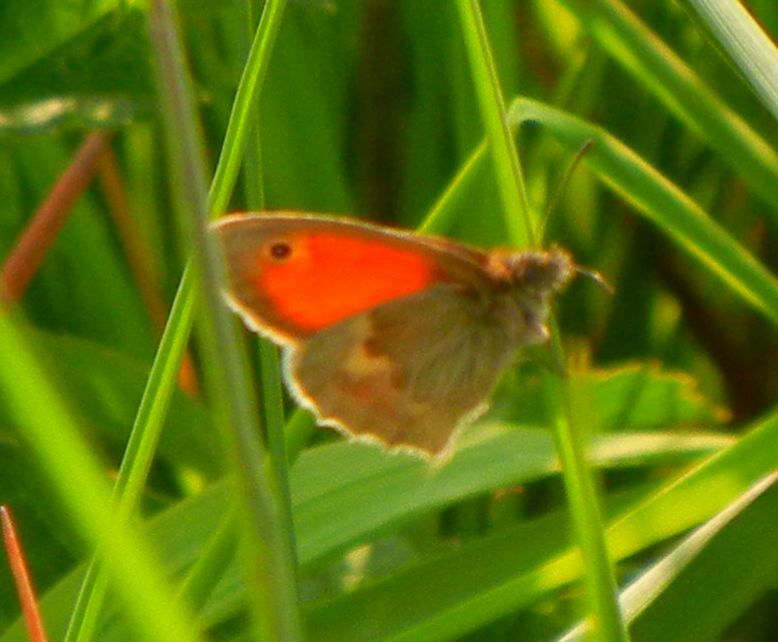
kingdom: Animalia
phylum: Arthropoda
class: Insecta
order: Lepidoptera
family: Nymphalidae
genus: Coenonympha
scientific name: Coenonympha pamphilus
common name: Small heath
